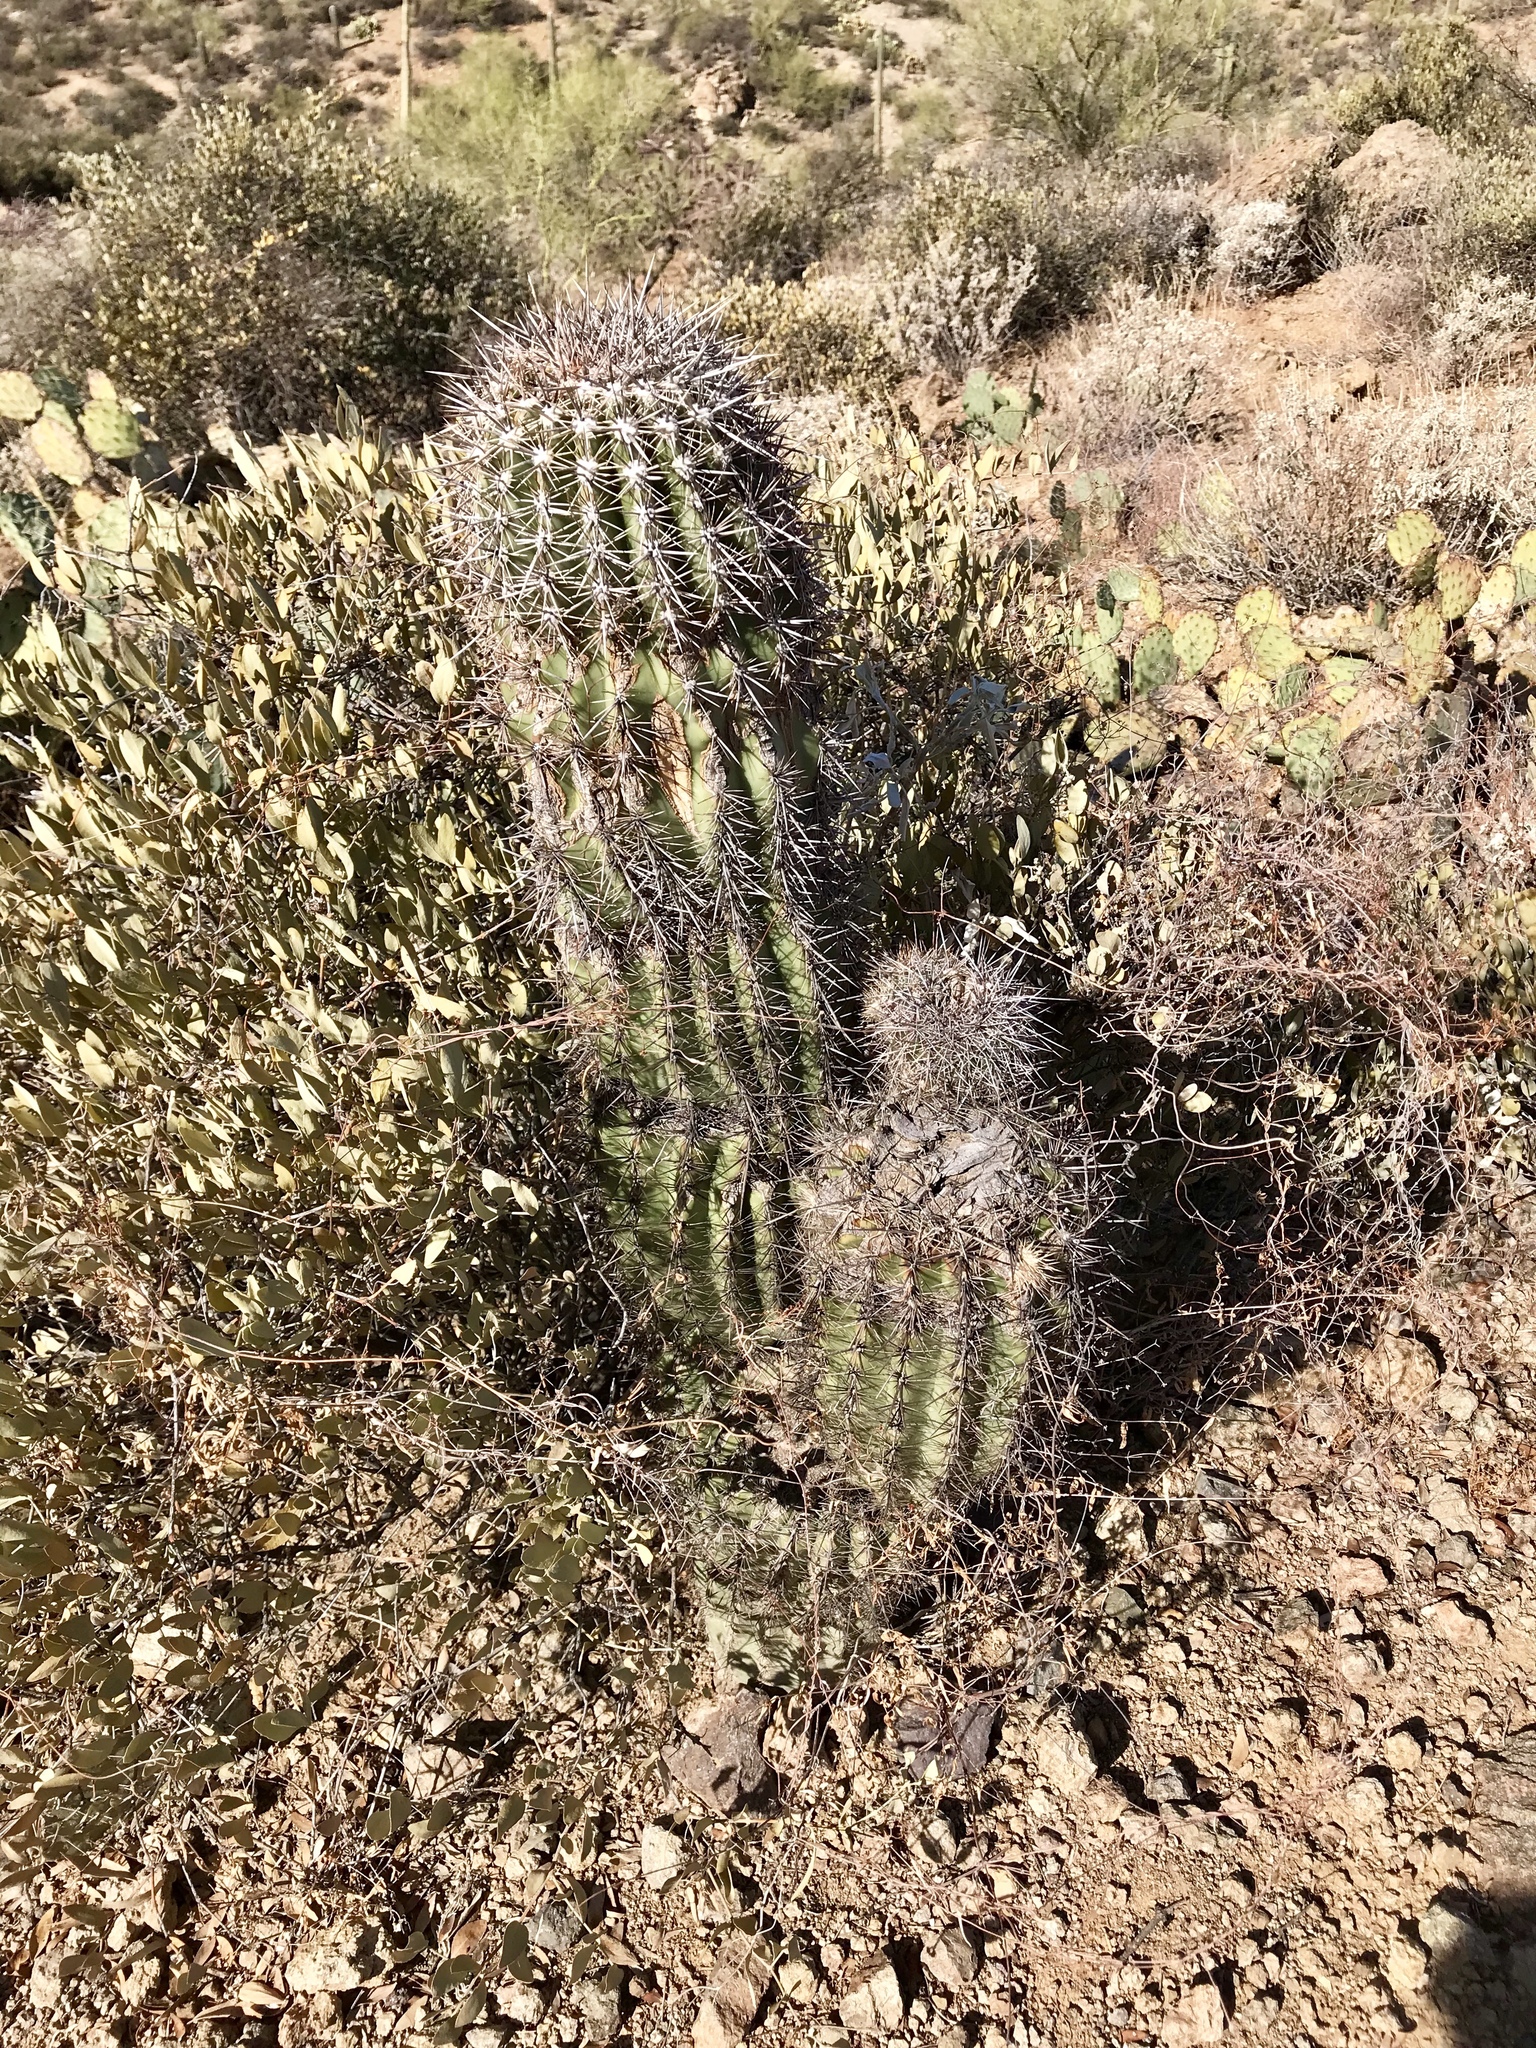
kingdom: Plantae
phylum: Tracheophyta
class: Magnoliopsida
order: Caryophyllales
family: Cactaceae
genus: Carnegiea
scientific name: Carnegiea gigantea
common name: Saguaro
